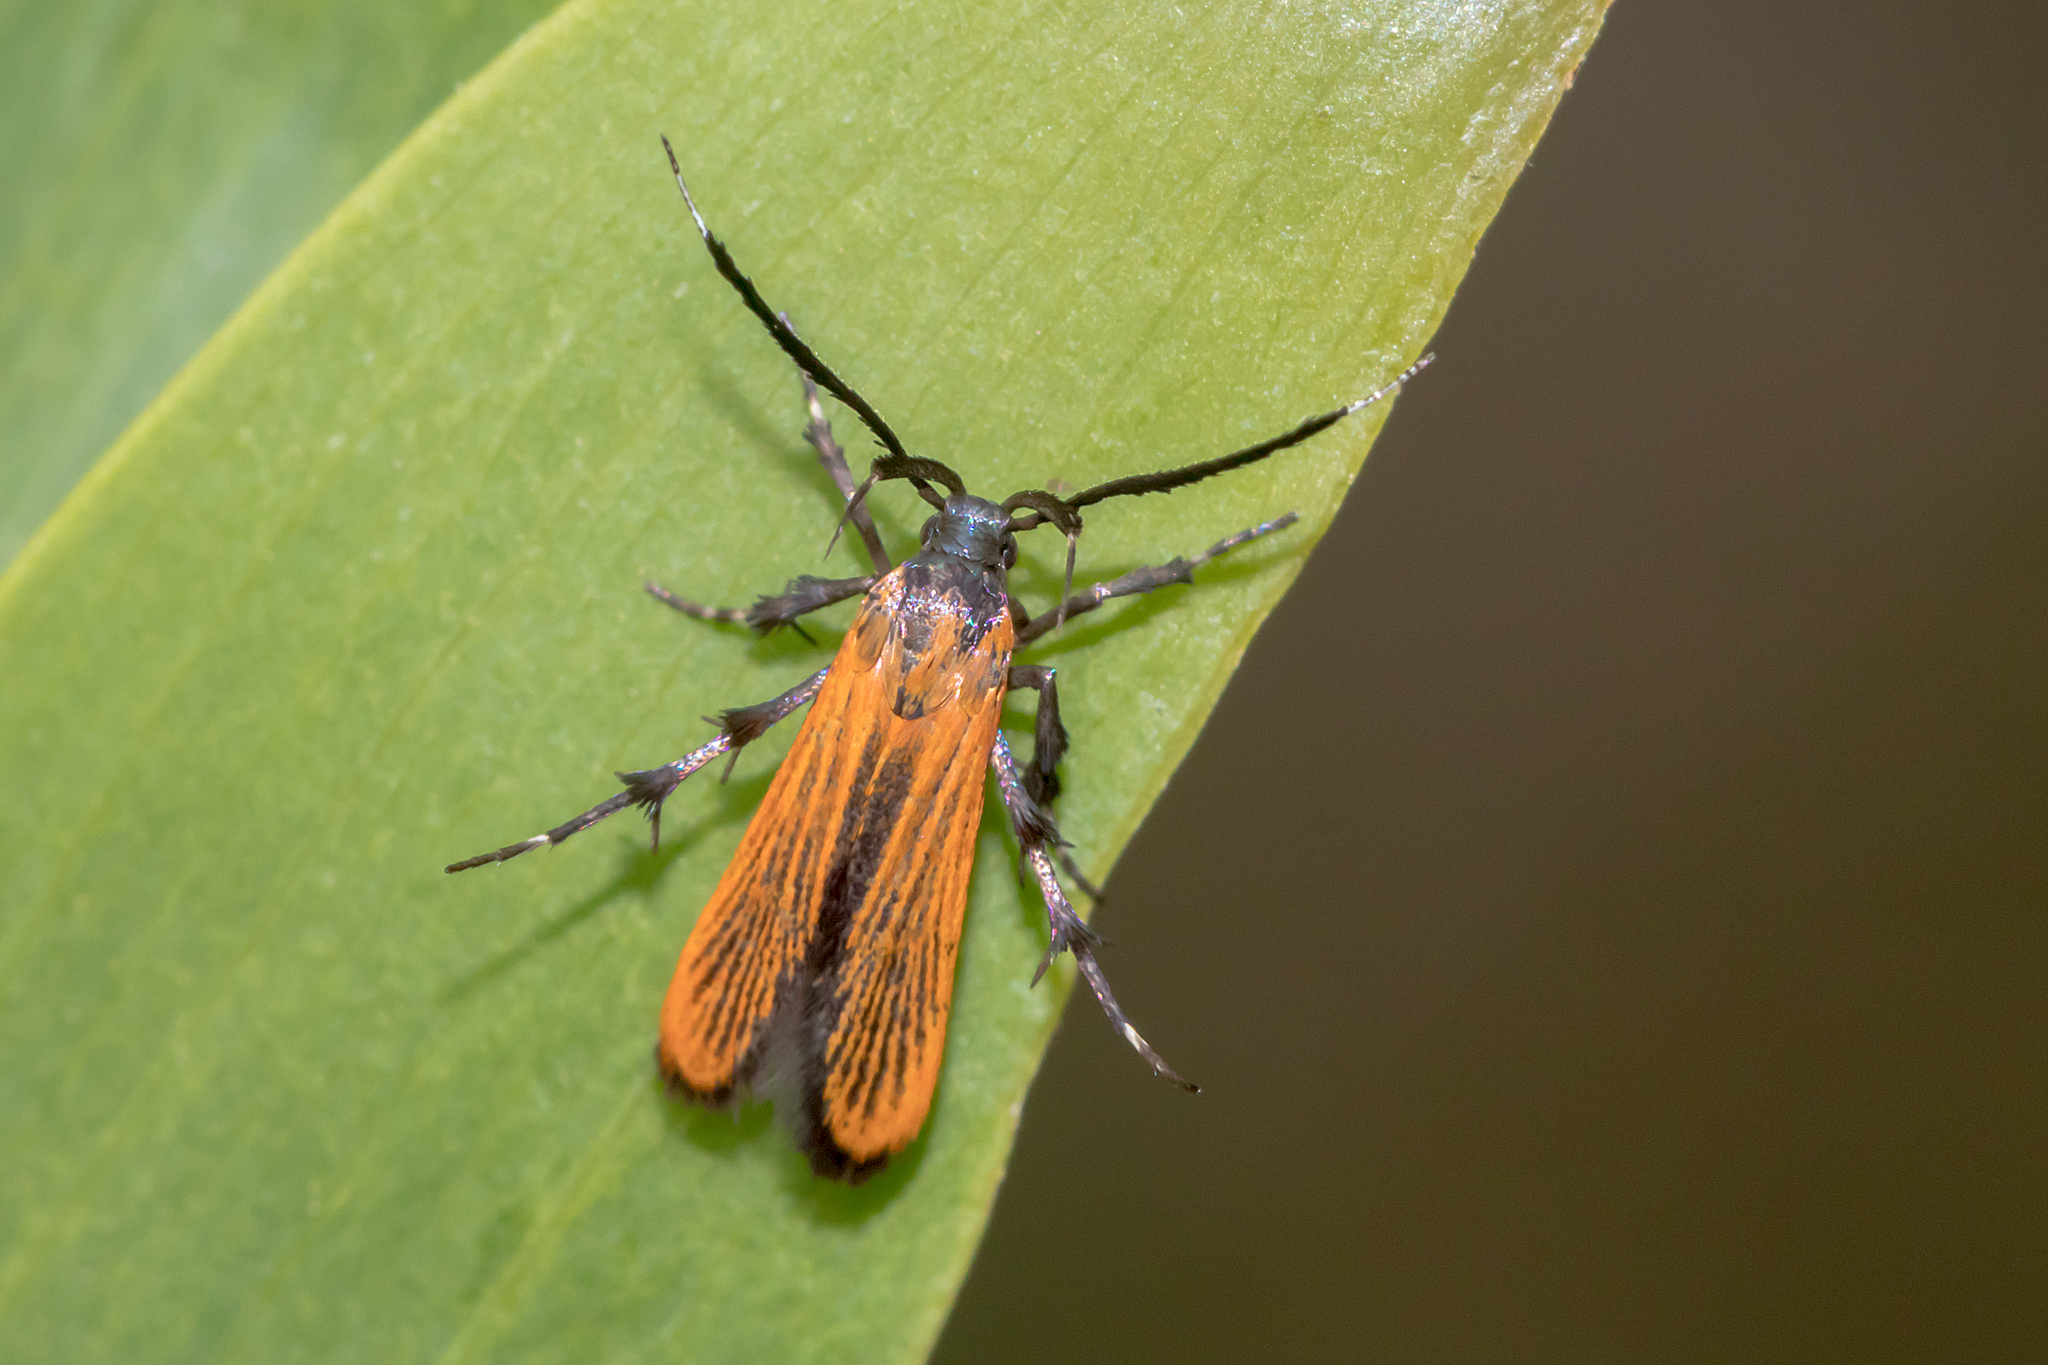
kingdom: Animalia
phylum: Arthropoda
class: Insecta
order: Lepidoptera
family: Stathmopodidae
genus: Snellenia
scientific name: Snellenia lineata
